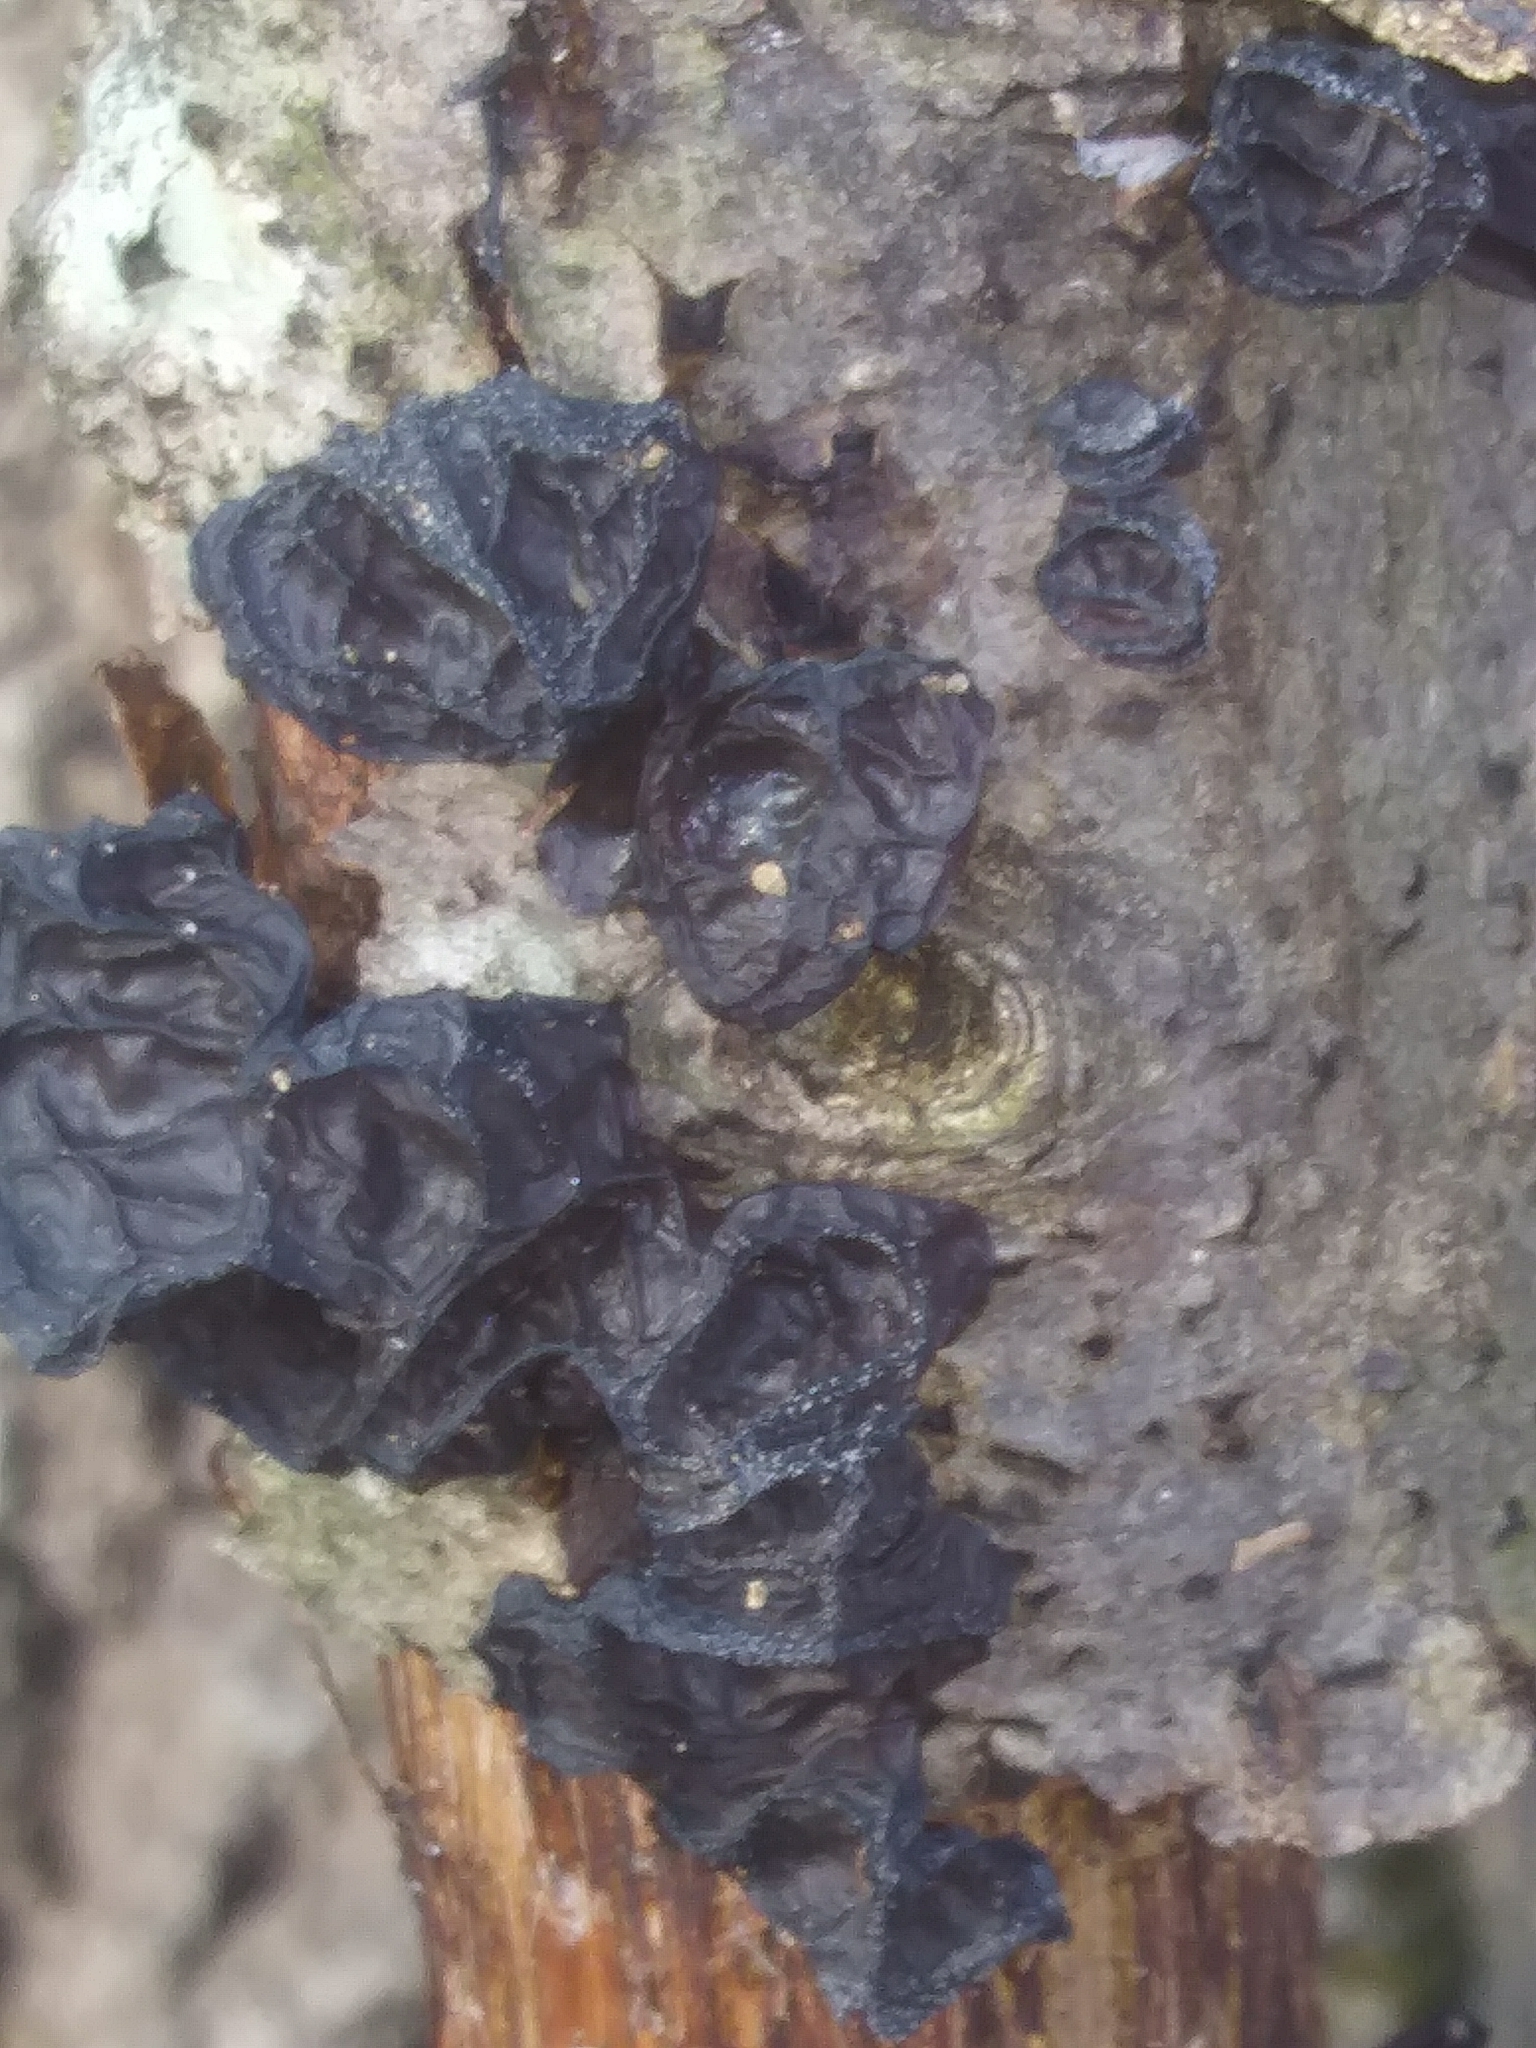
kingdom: Fungi
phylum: Basidiomycota
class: Agaricomycetes
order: Auriculariales
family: Auriculariaceae
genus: Exidia
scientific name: Exidia glandulosa
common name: Witches' butter
